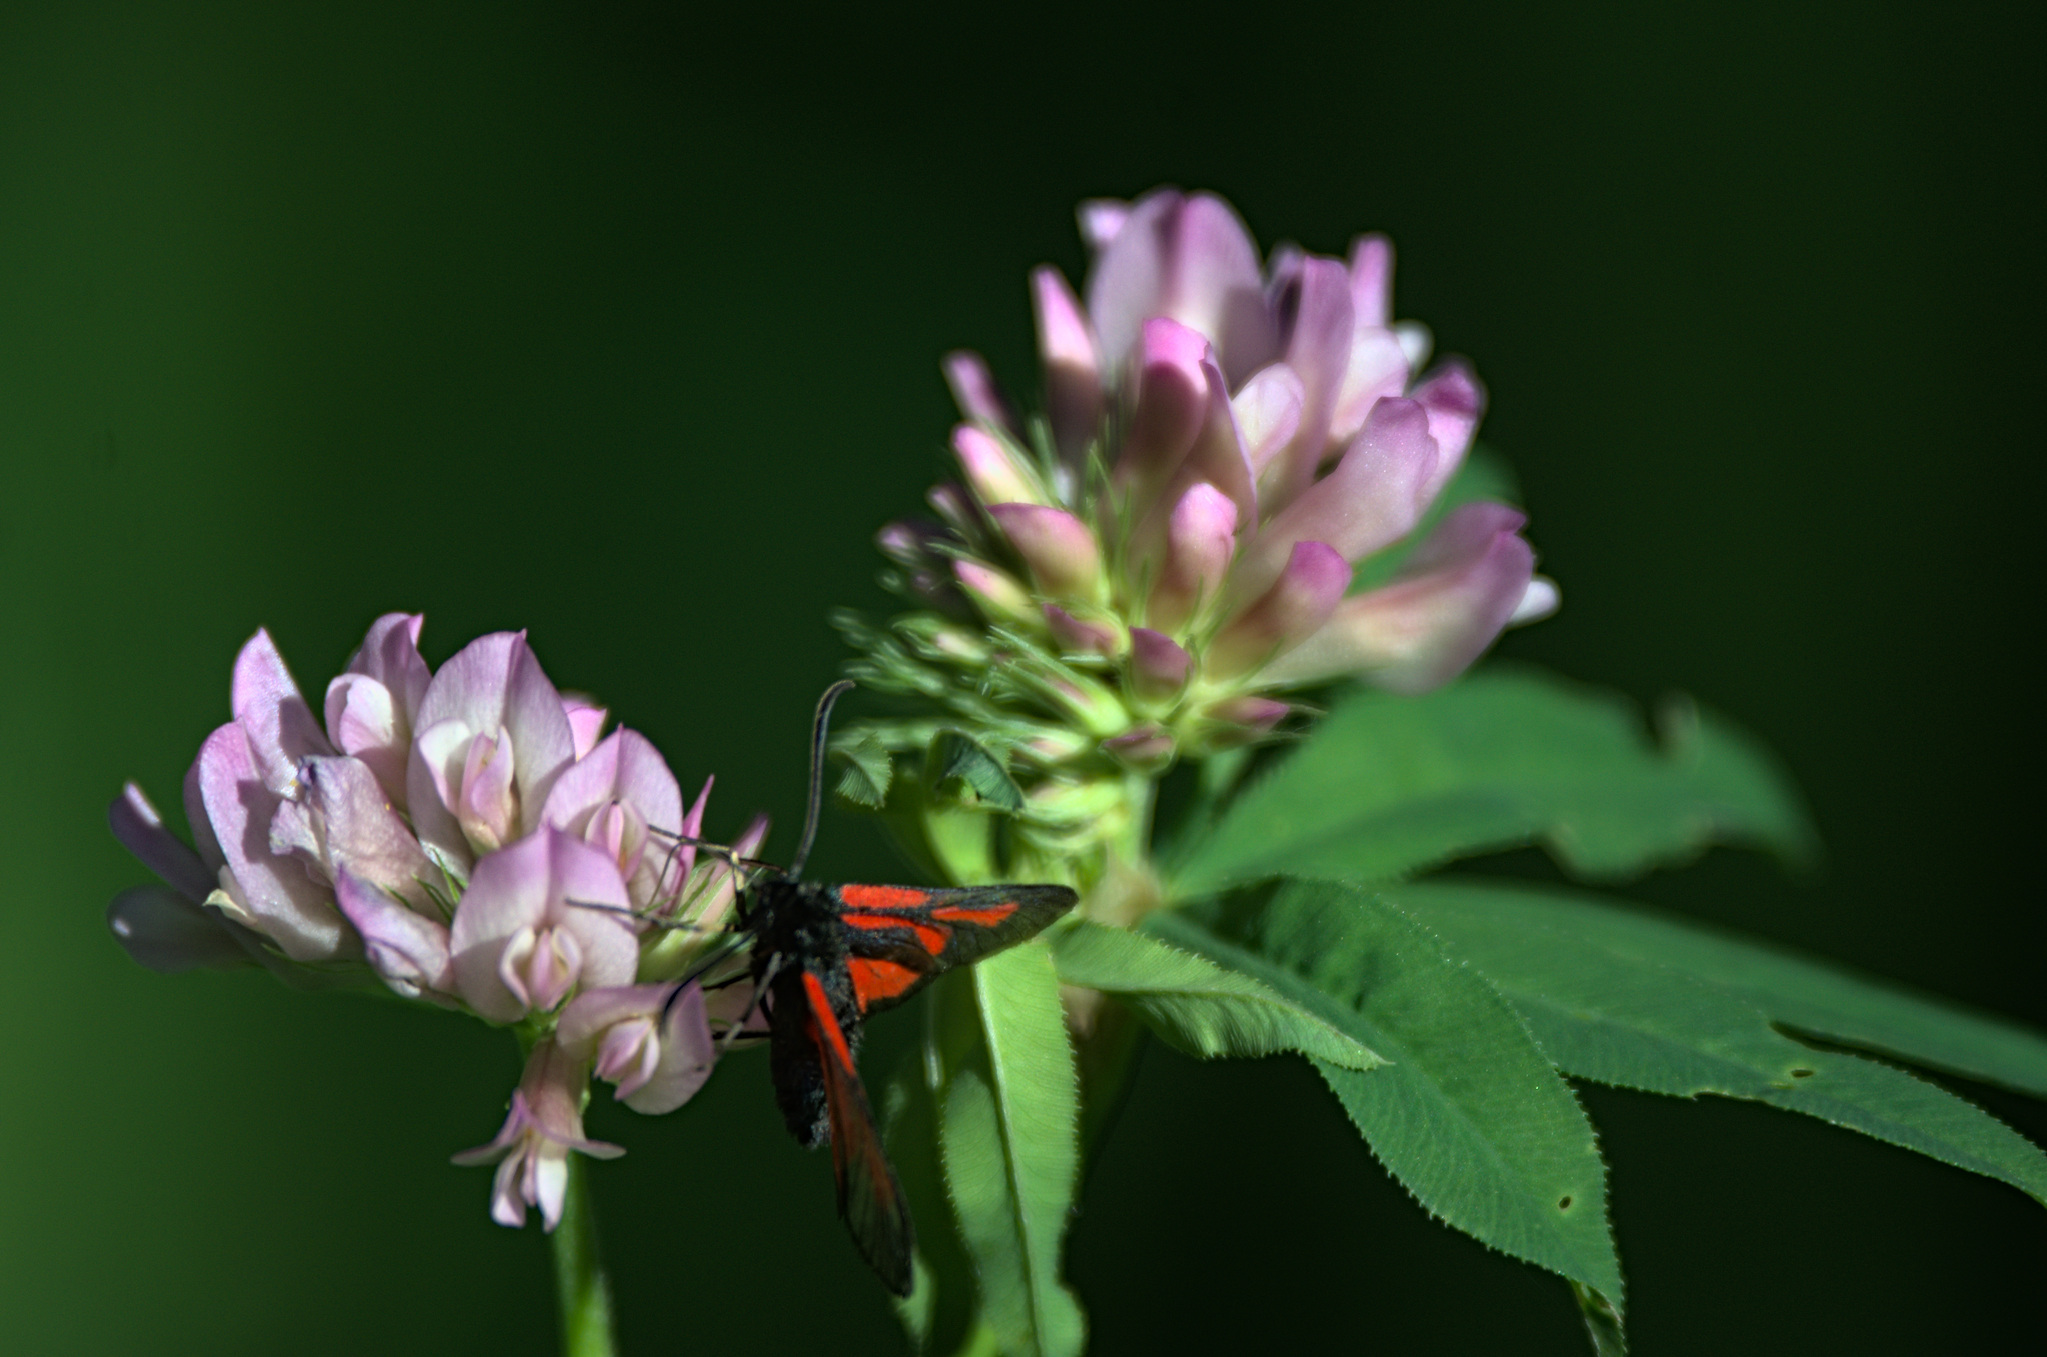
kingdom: Animalia
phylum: Arthropoda
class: Insecta
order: Lepidoptera
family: Zygaenidae
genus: Zygaena
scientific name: Zygaena osterodensis
